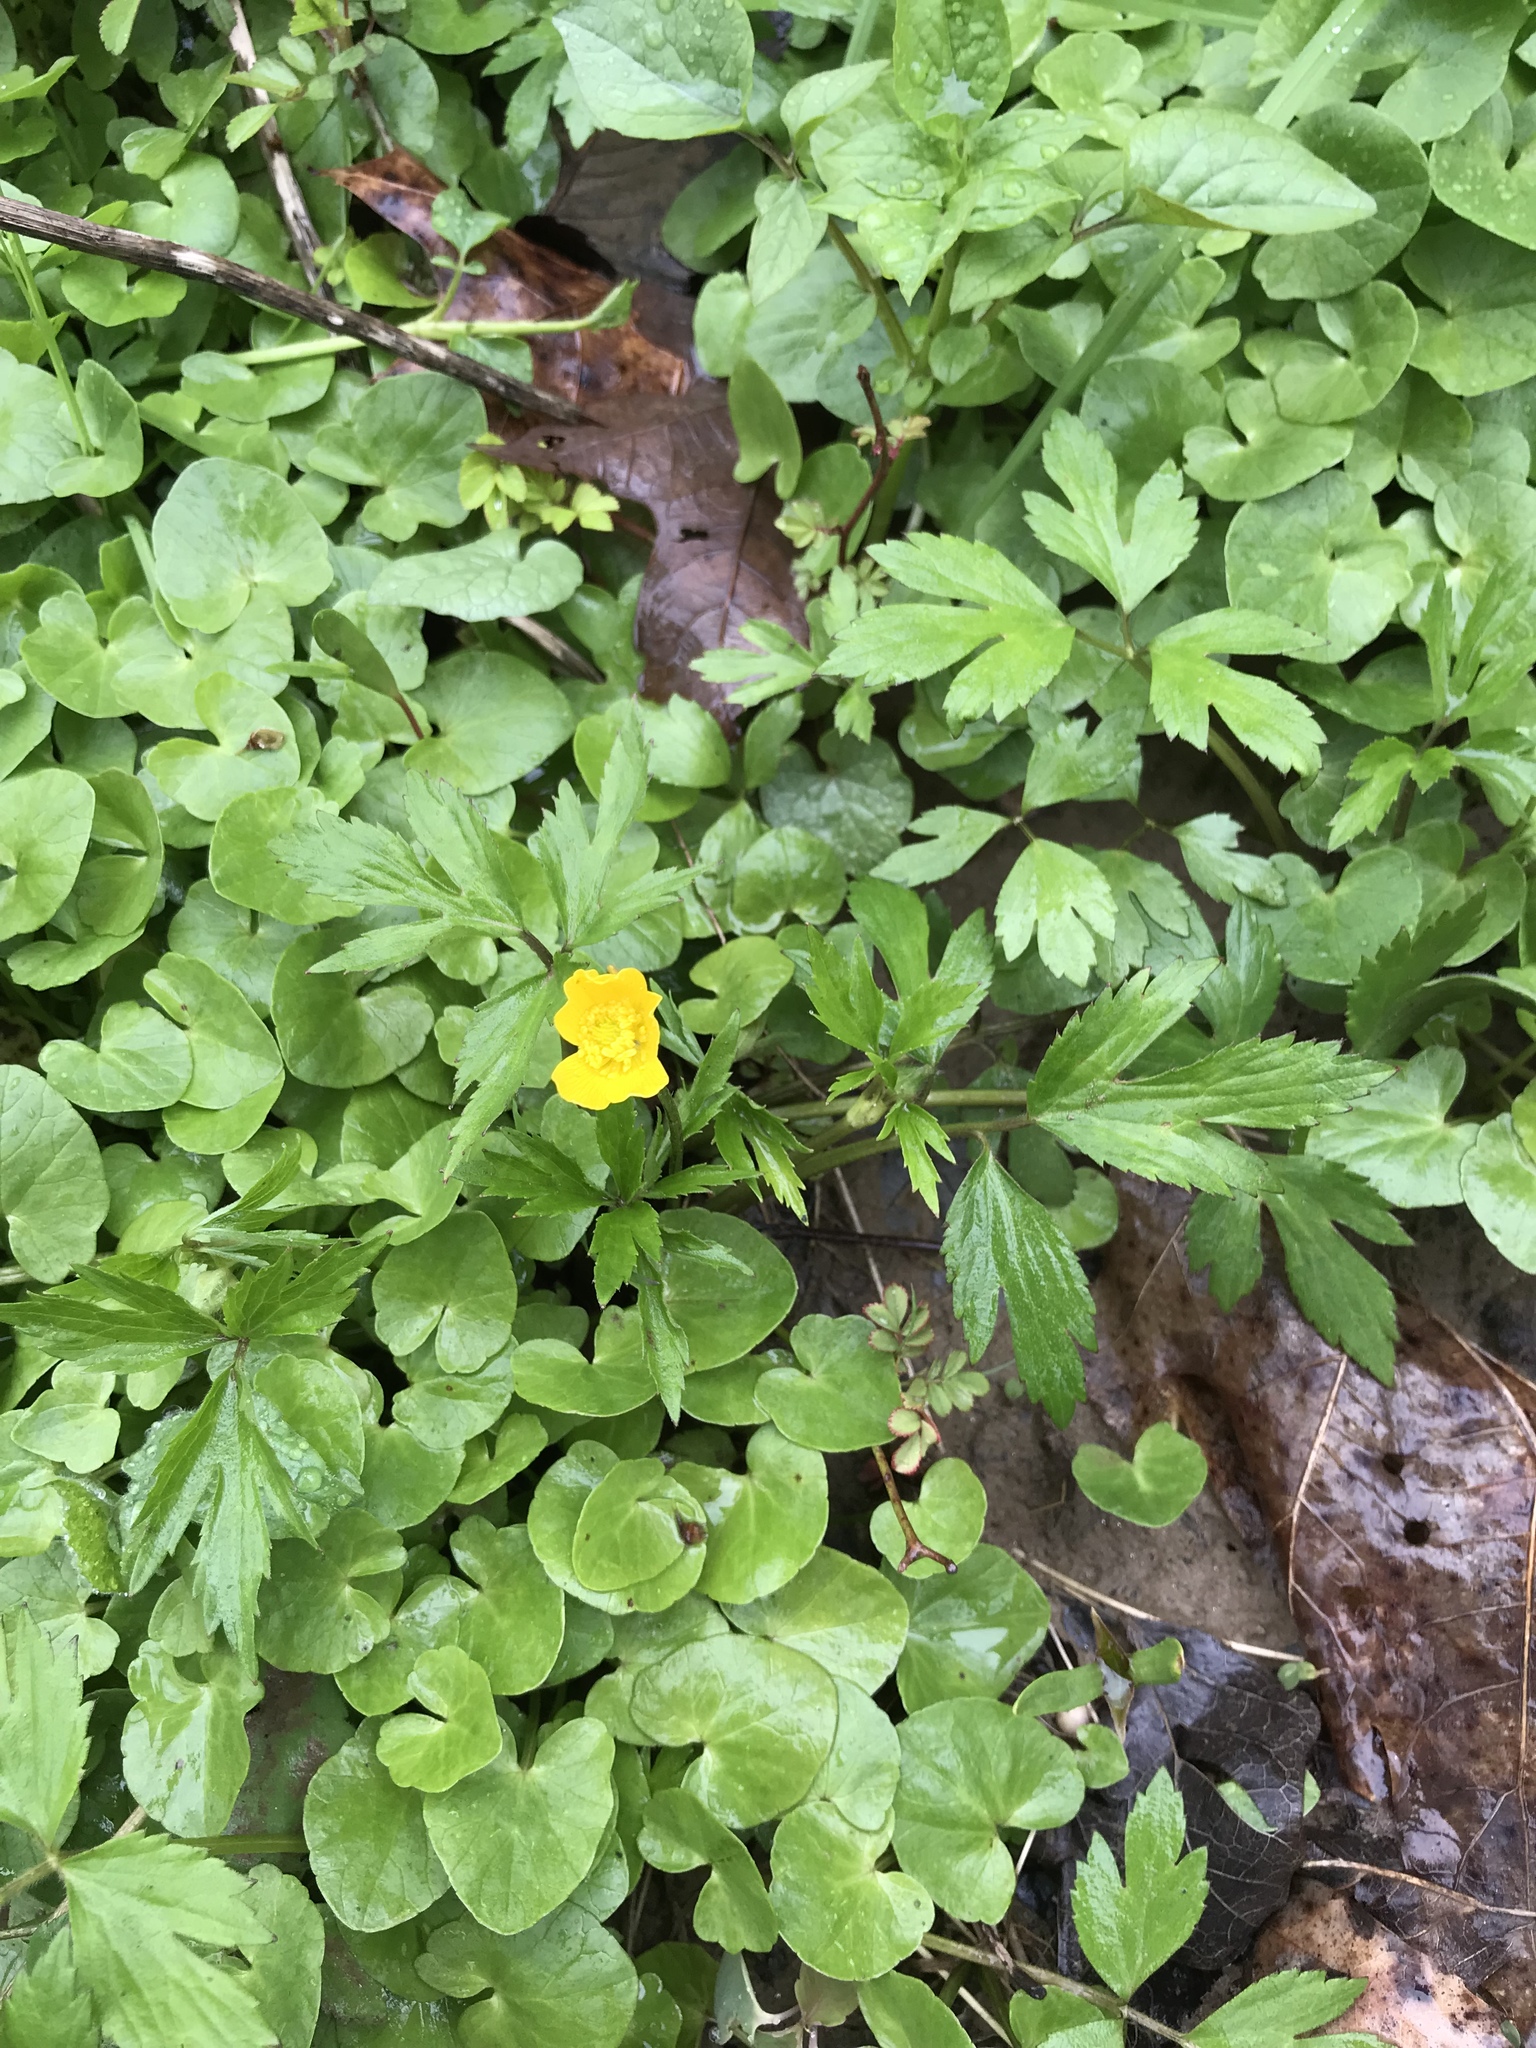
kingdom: Plantae
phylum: Tracheophyta
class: Magnoliopsida
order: Ranunculales
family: Ranunculaceae
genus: Ficaria
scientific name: Ficaria verna
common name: Lesser celandine
